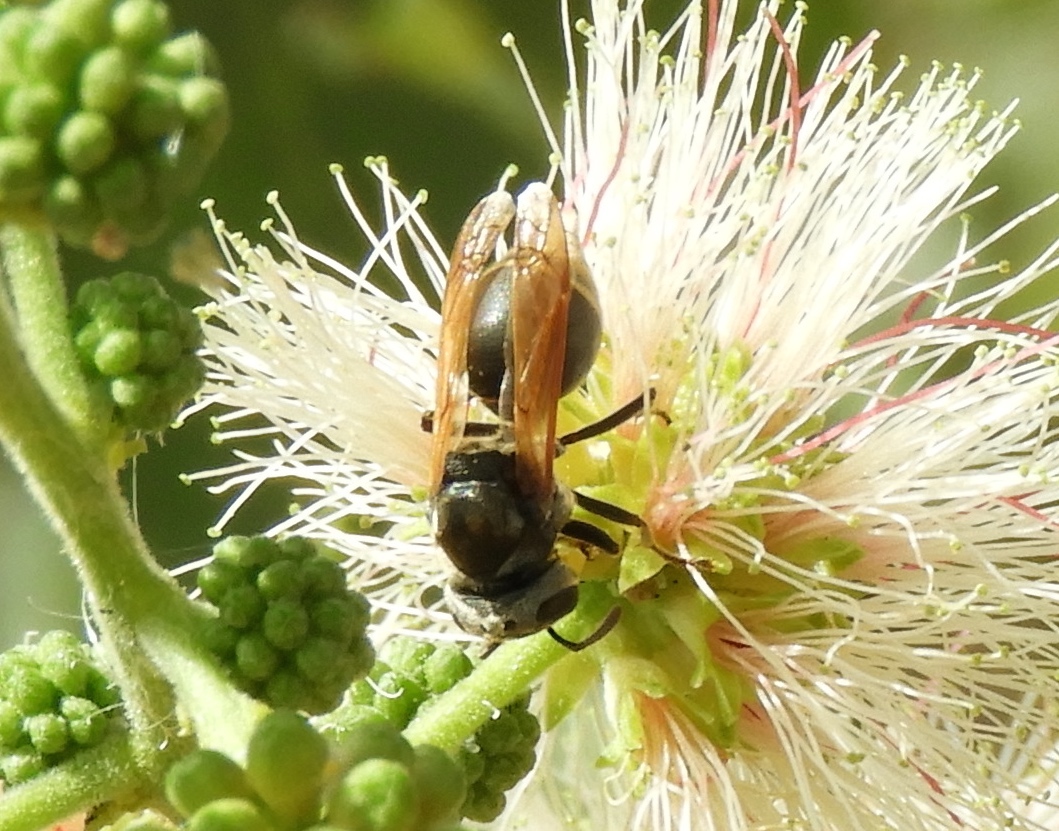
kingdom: Animalia
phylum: Arthropoda
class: Insecta
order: Hymenoptera
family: Vespidae
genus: Brachygastra
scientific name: Brachygastra
